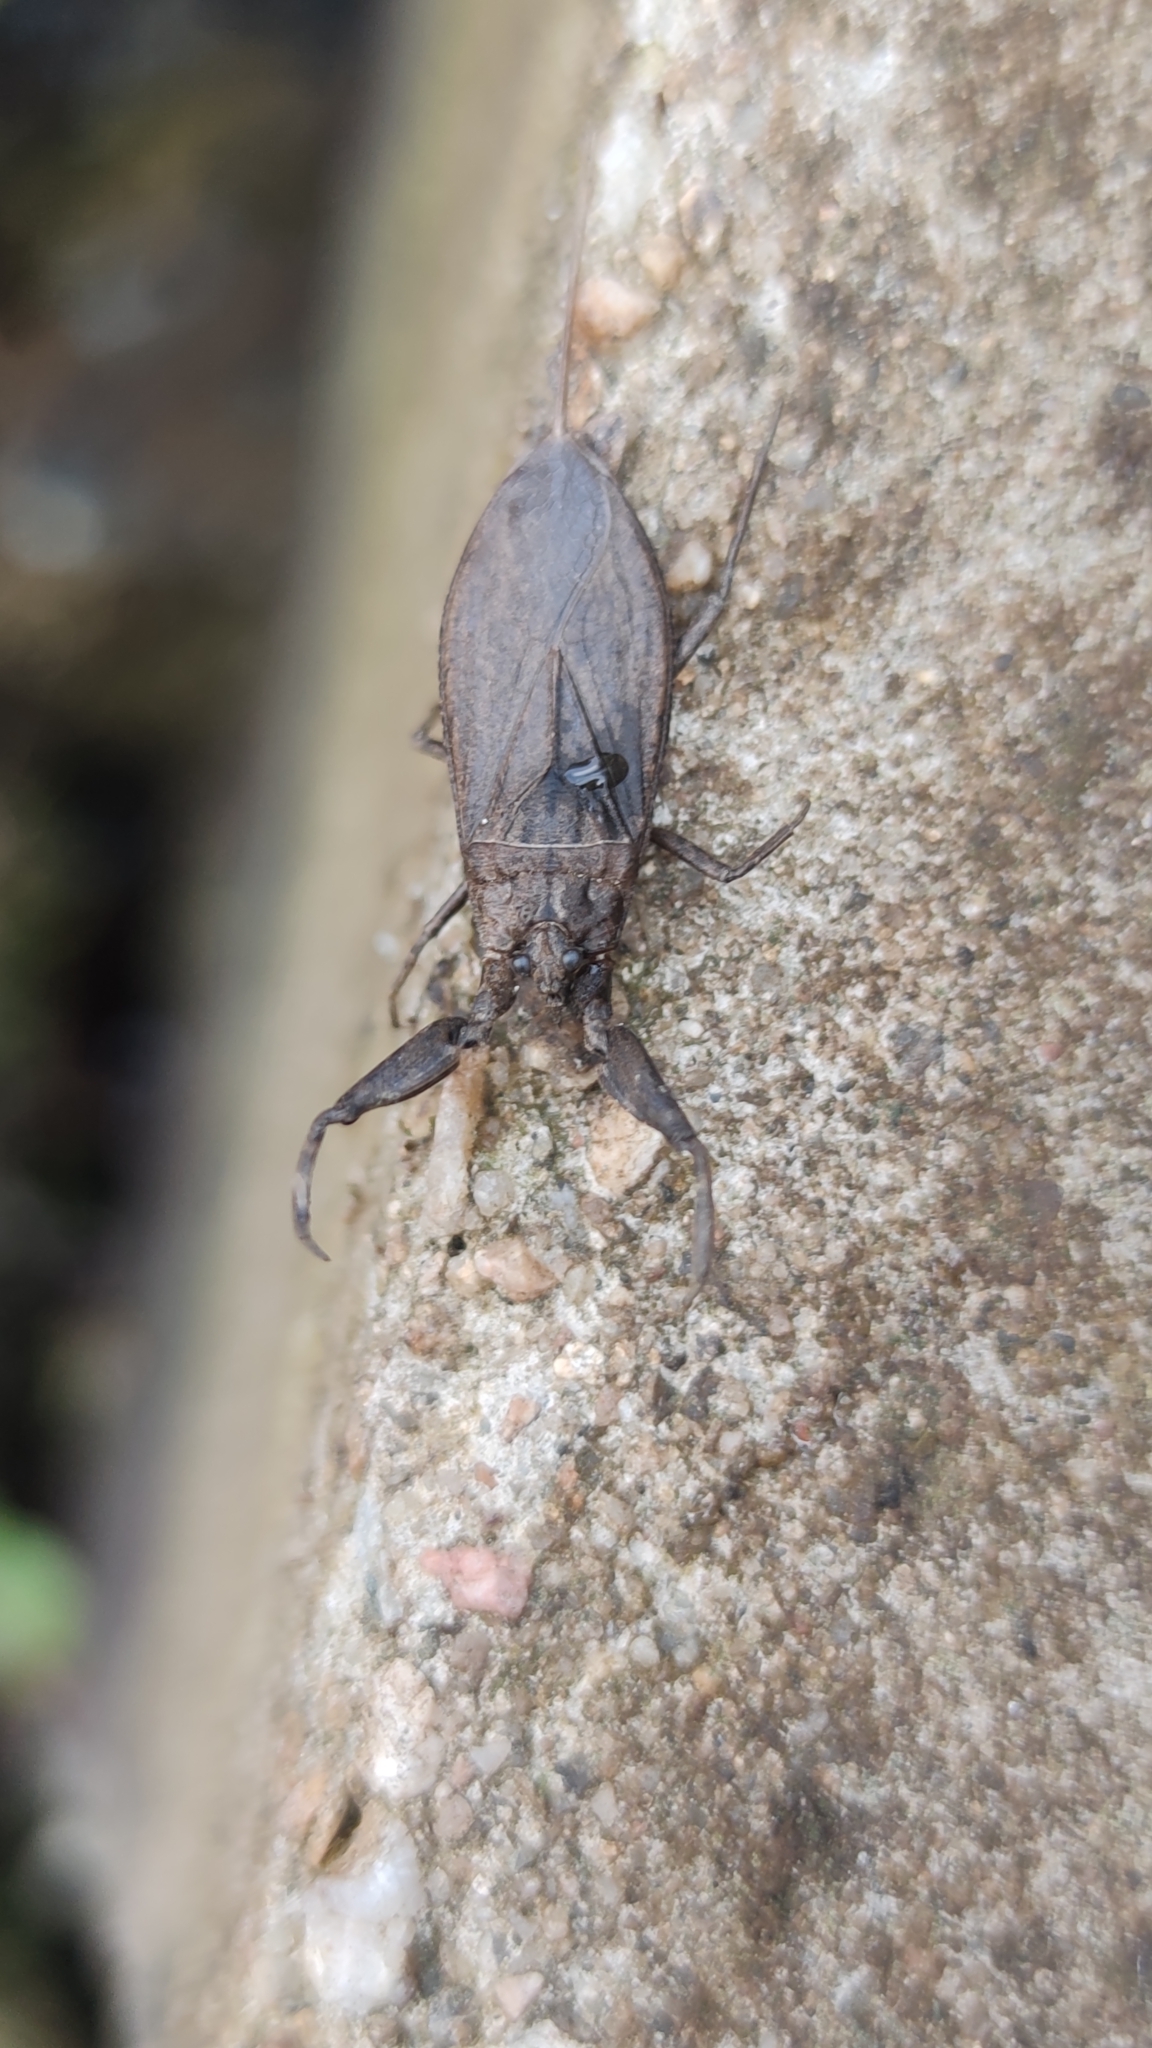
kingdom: Animalia
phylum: Arthropoda
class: Insecta
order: Hemiptera
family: Nepidae
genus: Nepa
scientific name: Nepa cinerea
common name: Water scorpion
